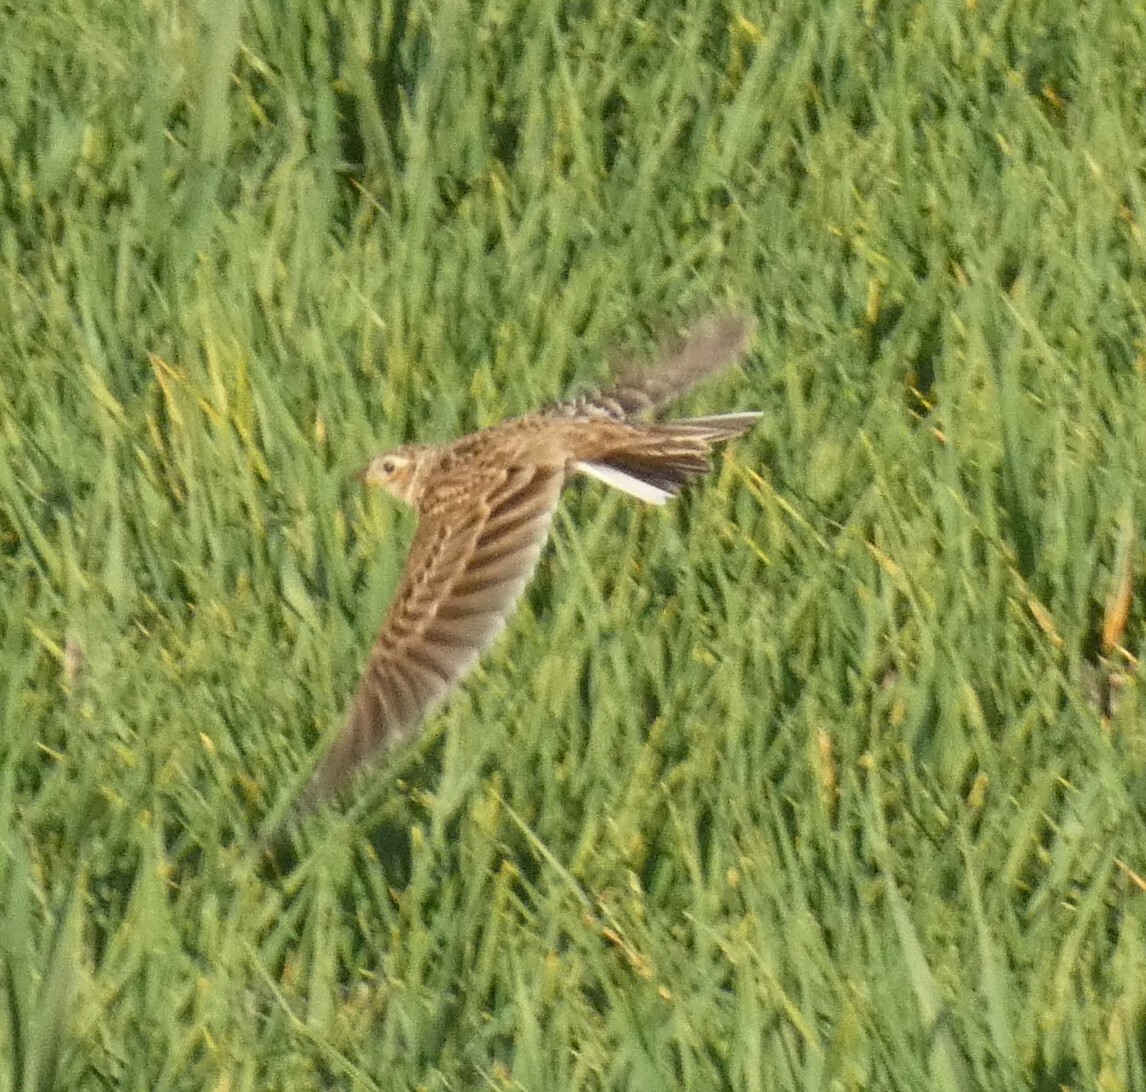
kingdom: Animalia
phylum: Chordata
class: Aves
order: Passeriformes
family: Alaudidae
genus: Alauda
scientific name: Alauda arvensis
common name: Eurasian skylark
